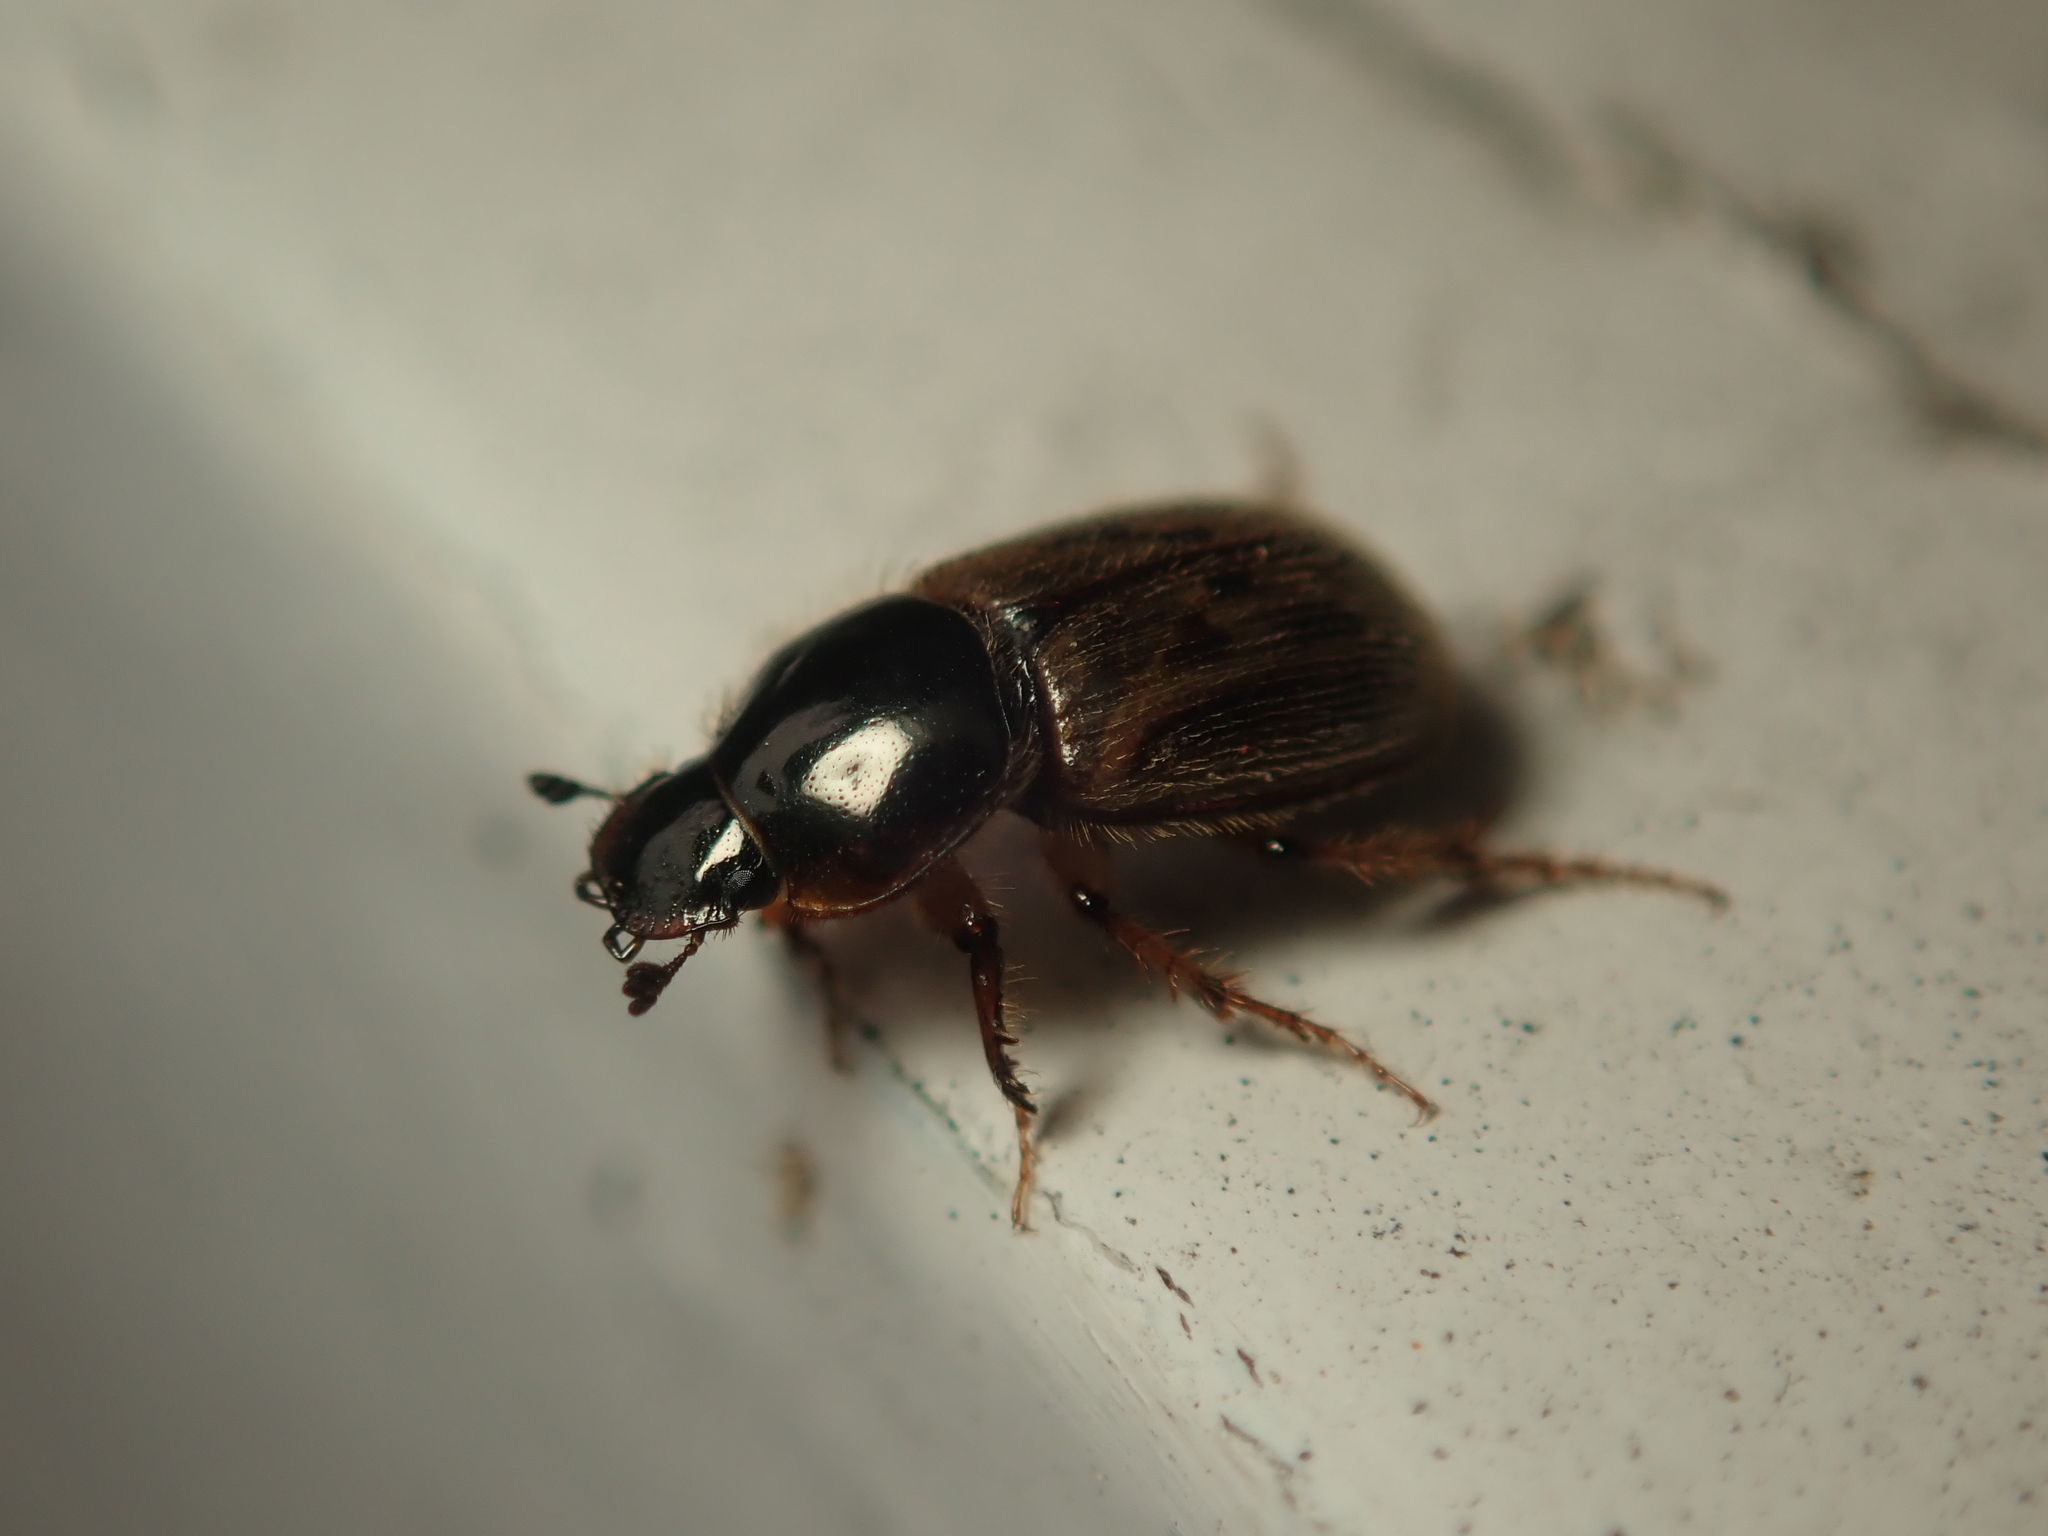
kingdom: Animalia
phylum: Arthropoda
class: Insecta
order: Coleoptera
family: Scarabaeidae
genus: Nimbus
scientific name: Nimbus contaminatus
